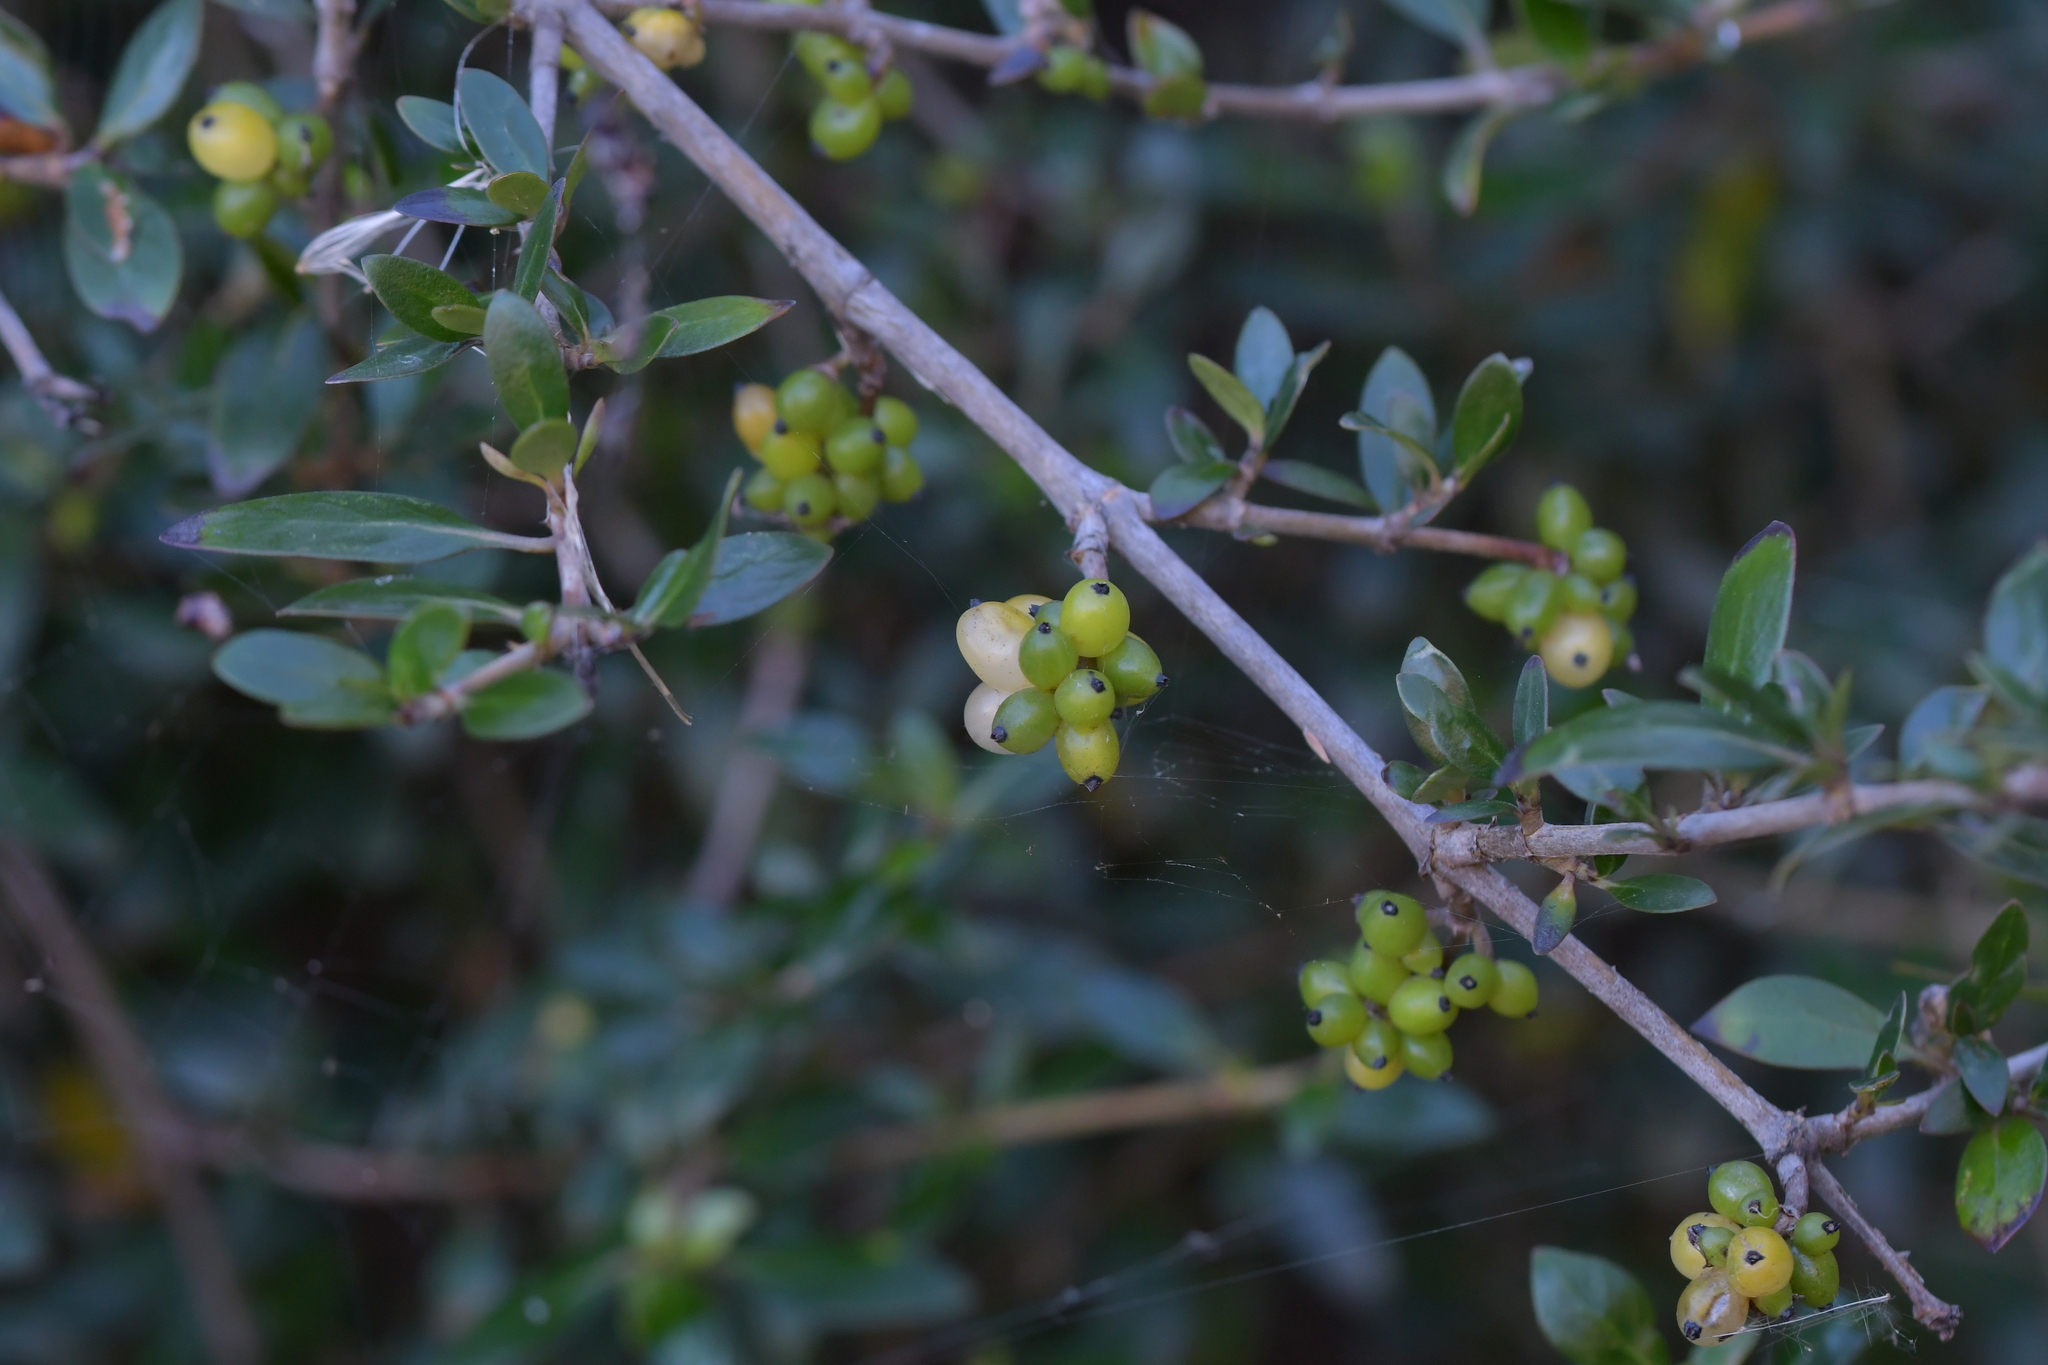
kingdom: Plantae
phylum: Tracheophyta
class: Magnoliopsida
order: Gentianales
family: Rubiaceae
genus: Coprosma
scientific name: Coprosma cunninghamii
